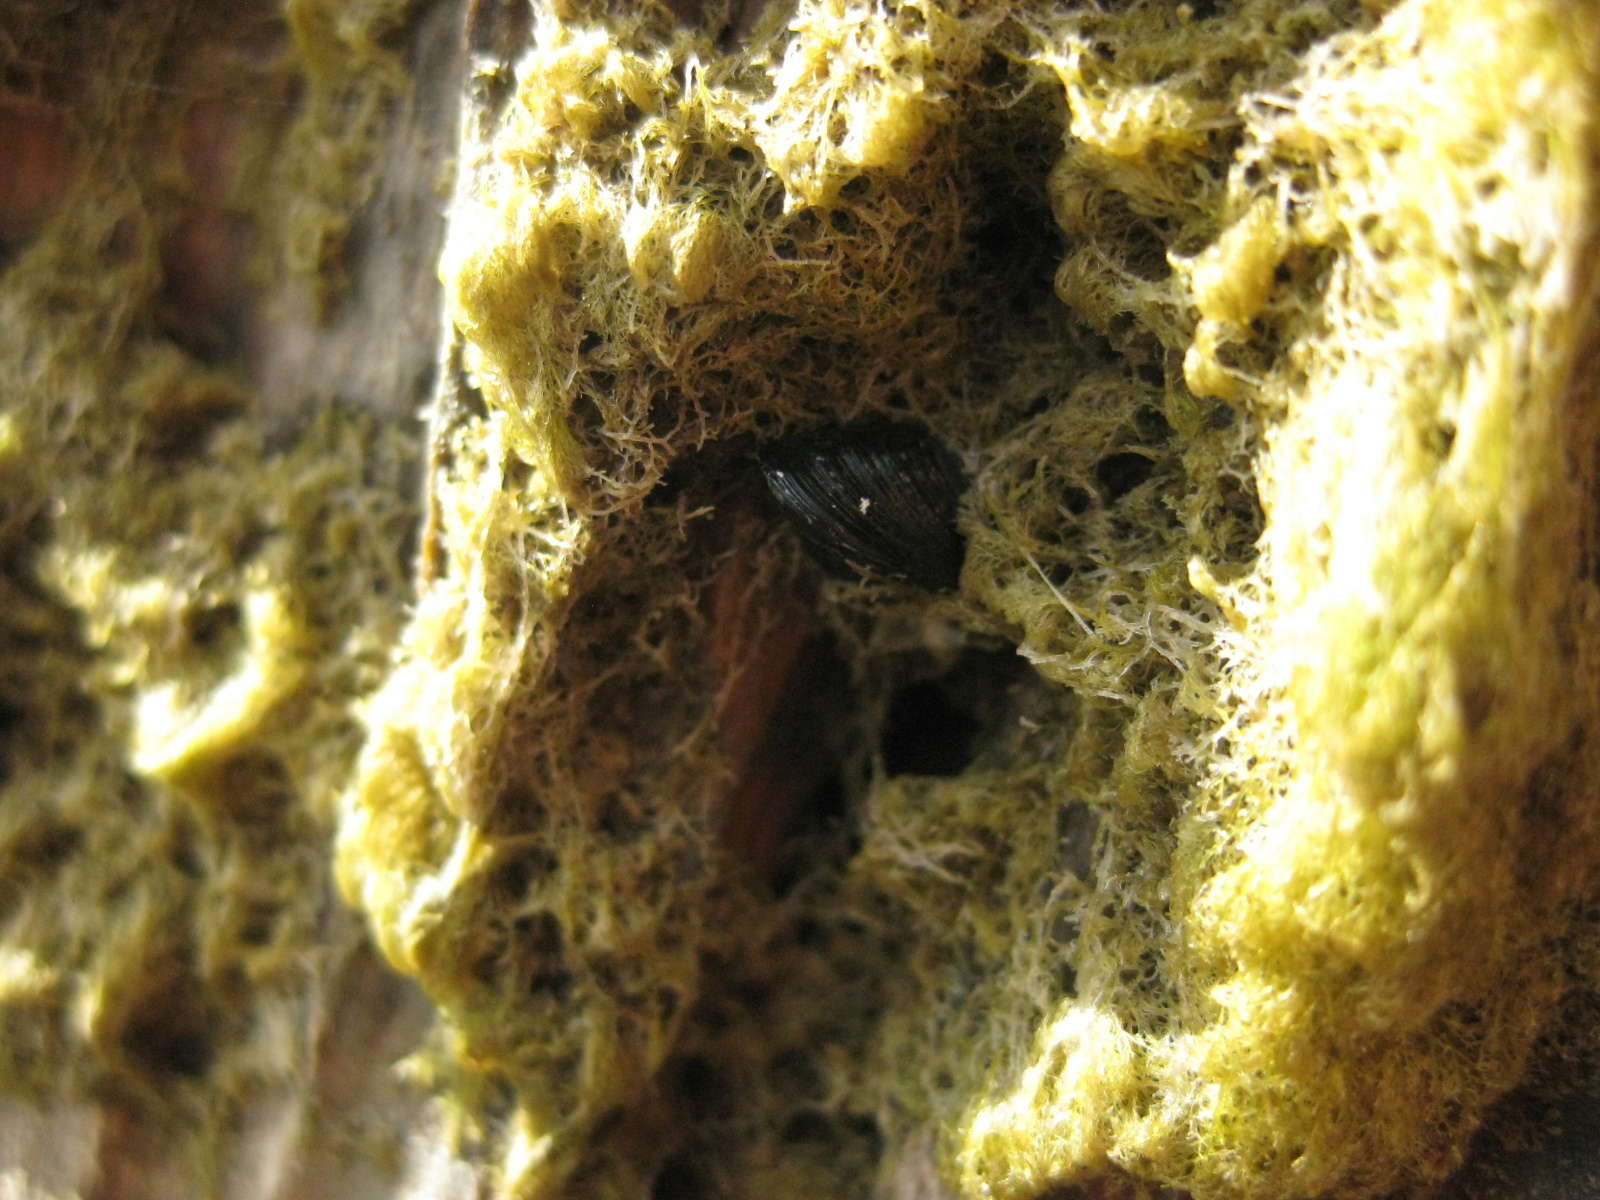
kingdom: Animalia
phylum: Mollusca
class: Bivalvia
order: Mytilida
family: Mytilidae
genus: Xenostrobus
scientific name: Xenostrobus neozelanicus
